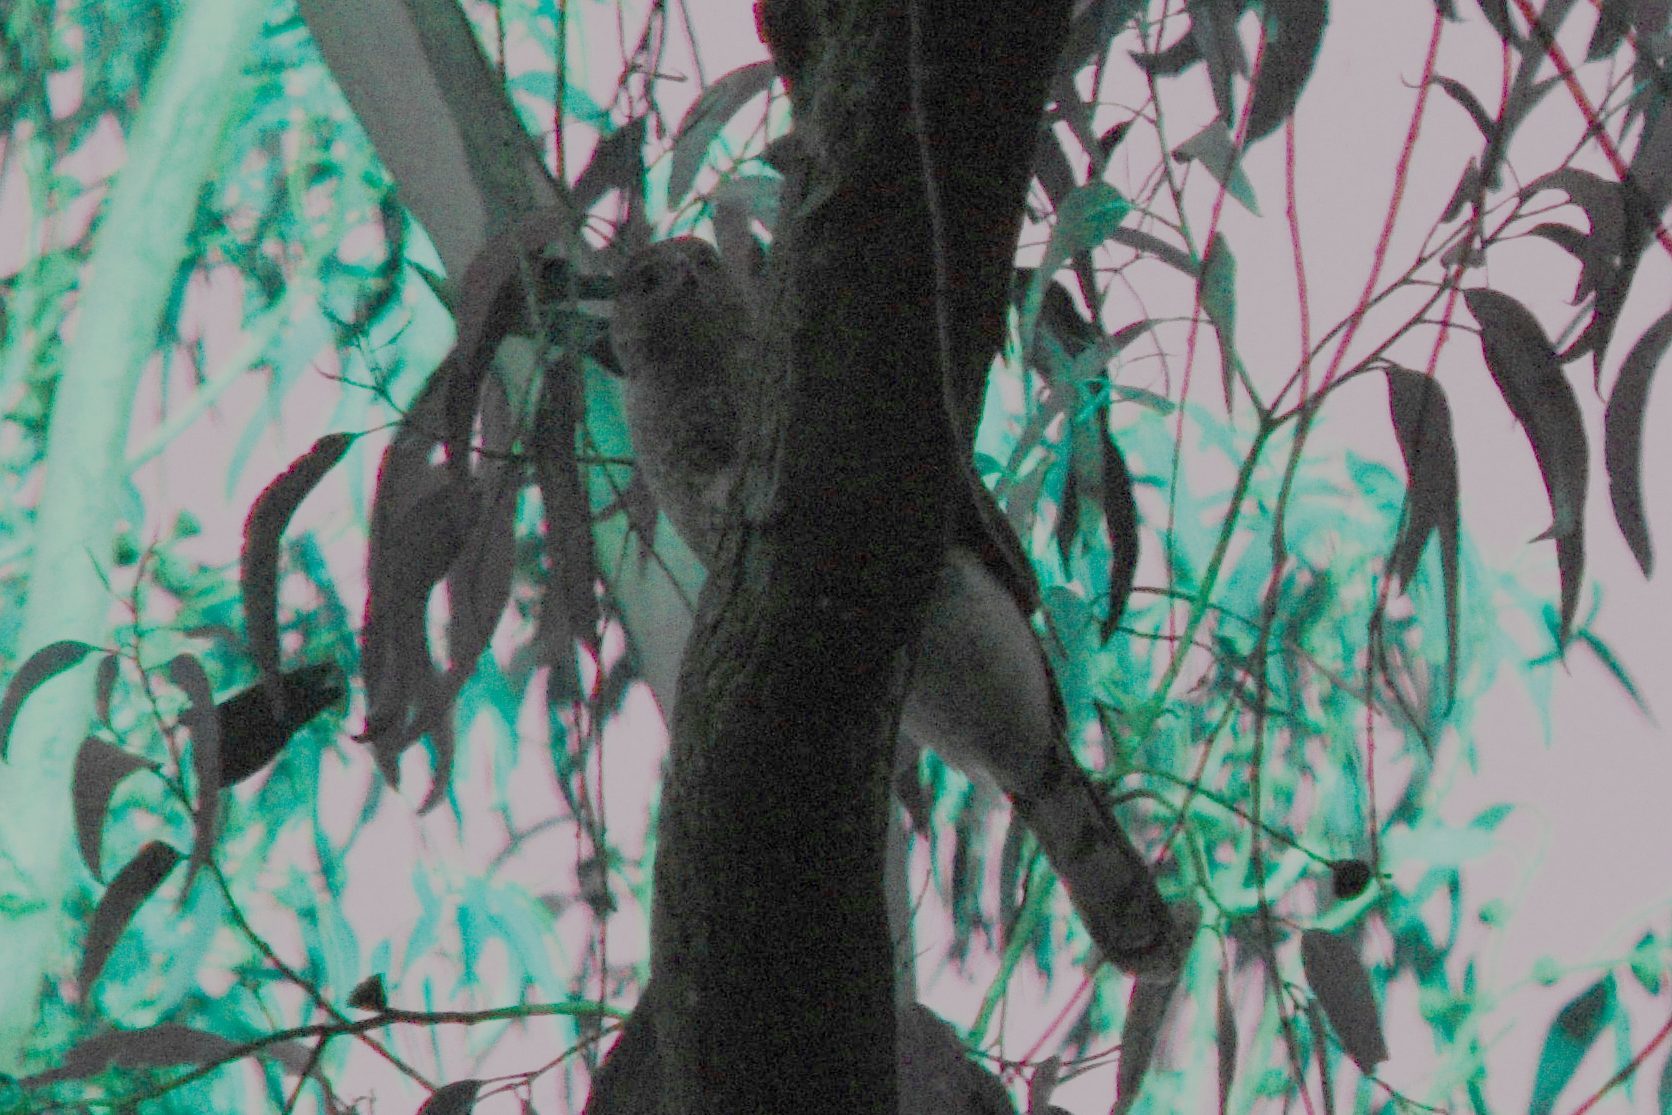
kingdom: Animalia
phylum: Chordata
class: Aves
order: Accipitriformes
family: Accipitridae
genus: Accipiter
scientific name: Accipiter cooperii
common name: Cooper's hawk
